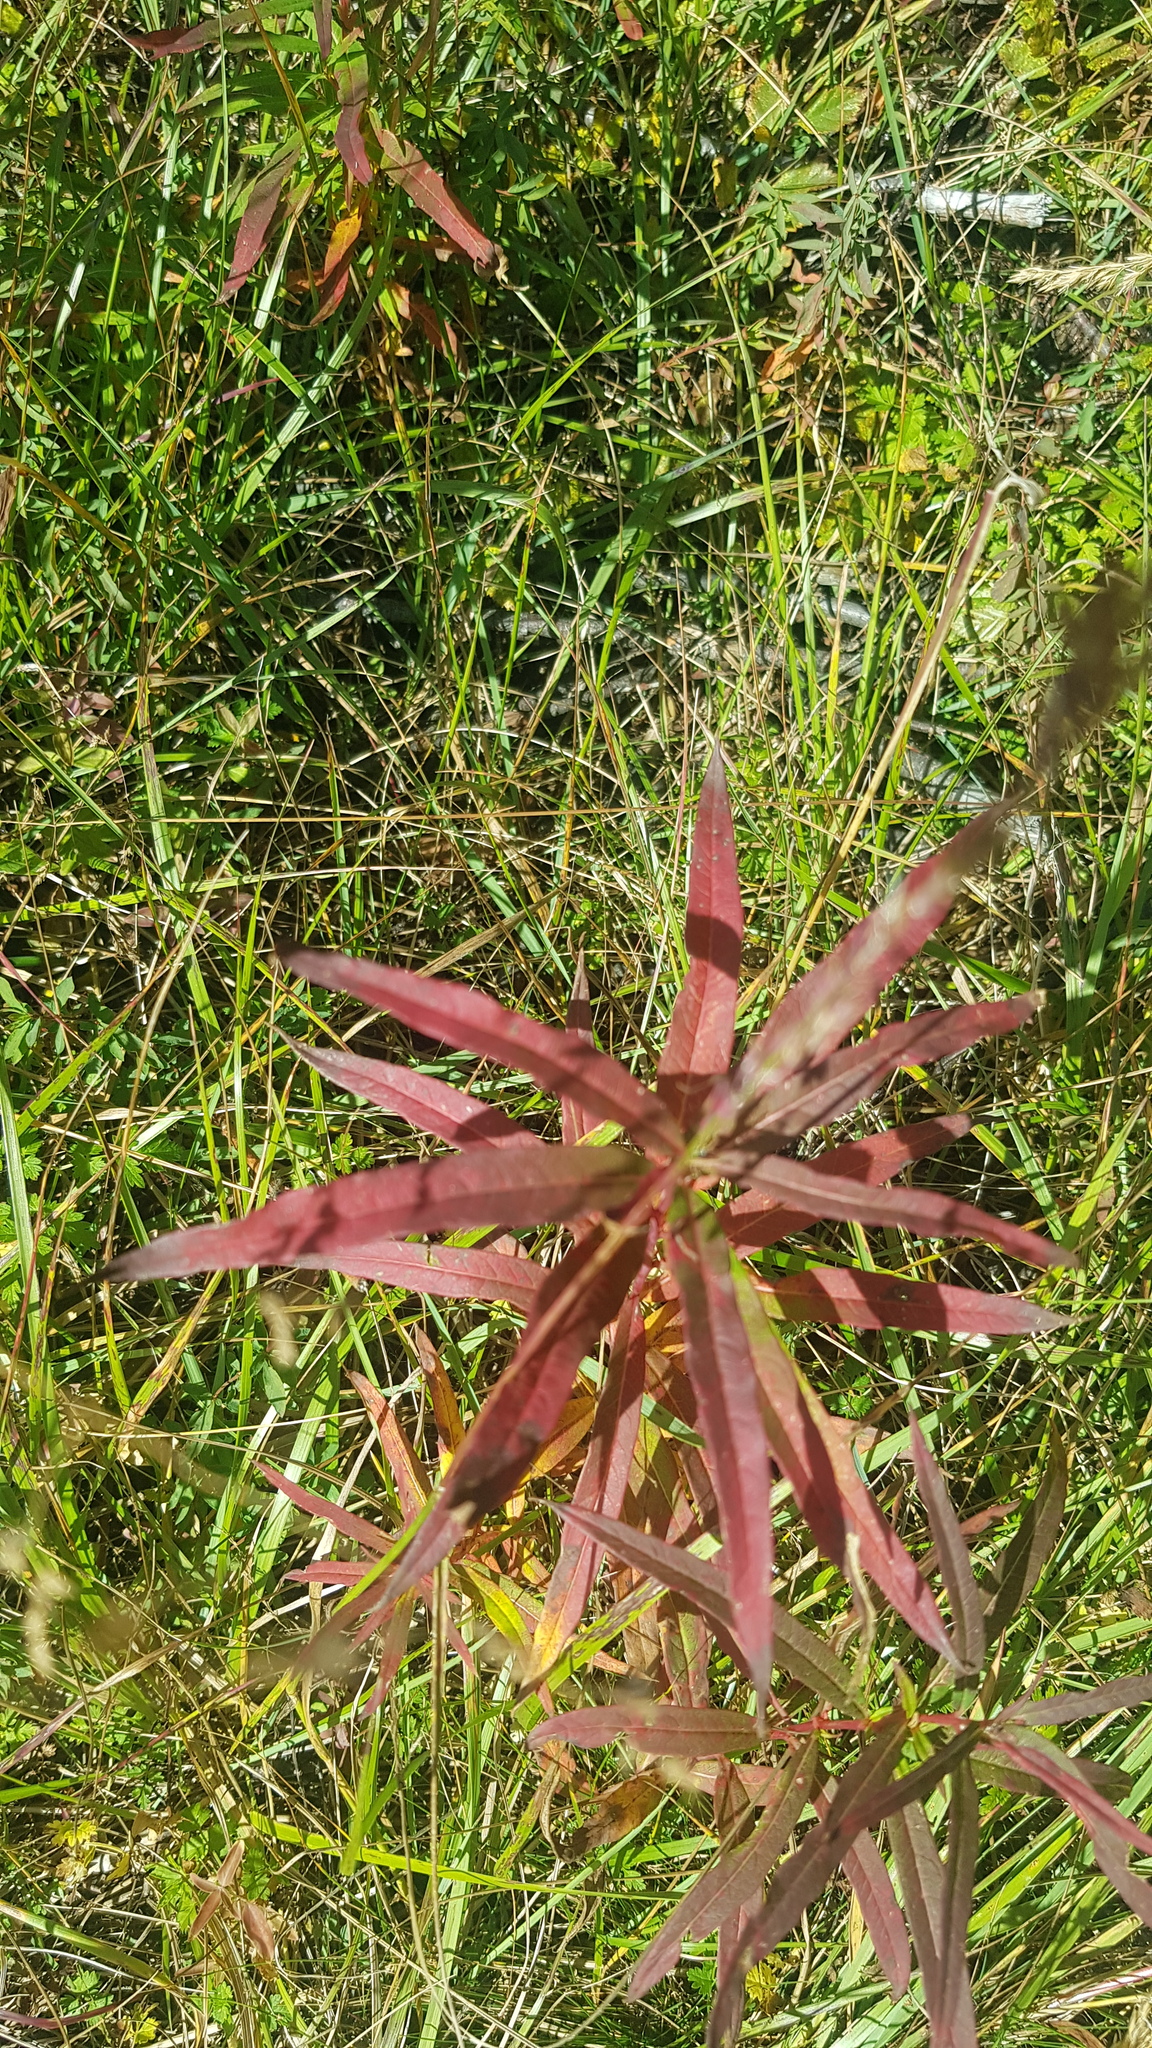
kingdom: Plantae
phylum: Tracheophyta
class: Magnoliopsida
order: Myrtales
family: Onagraceae
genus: Chamaenerion
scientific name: Chamaenerion angustifolium
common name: Fireweed
